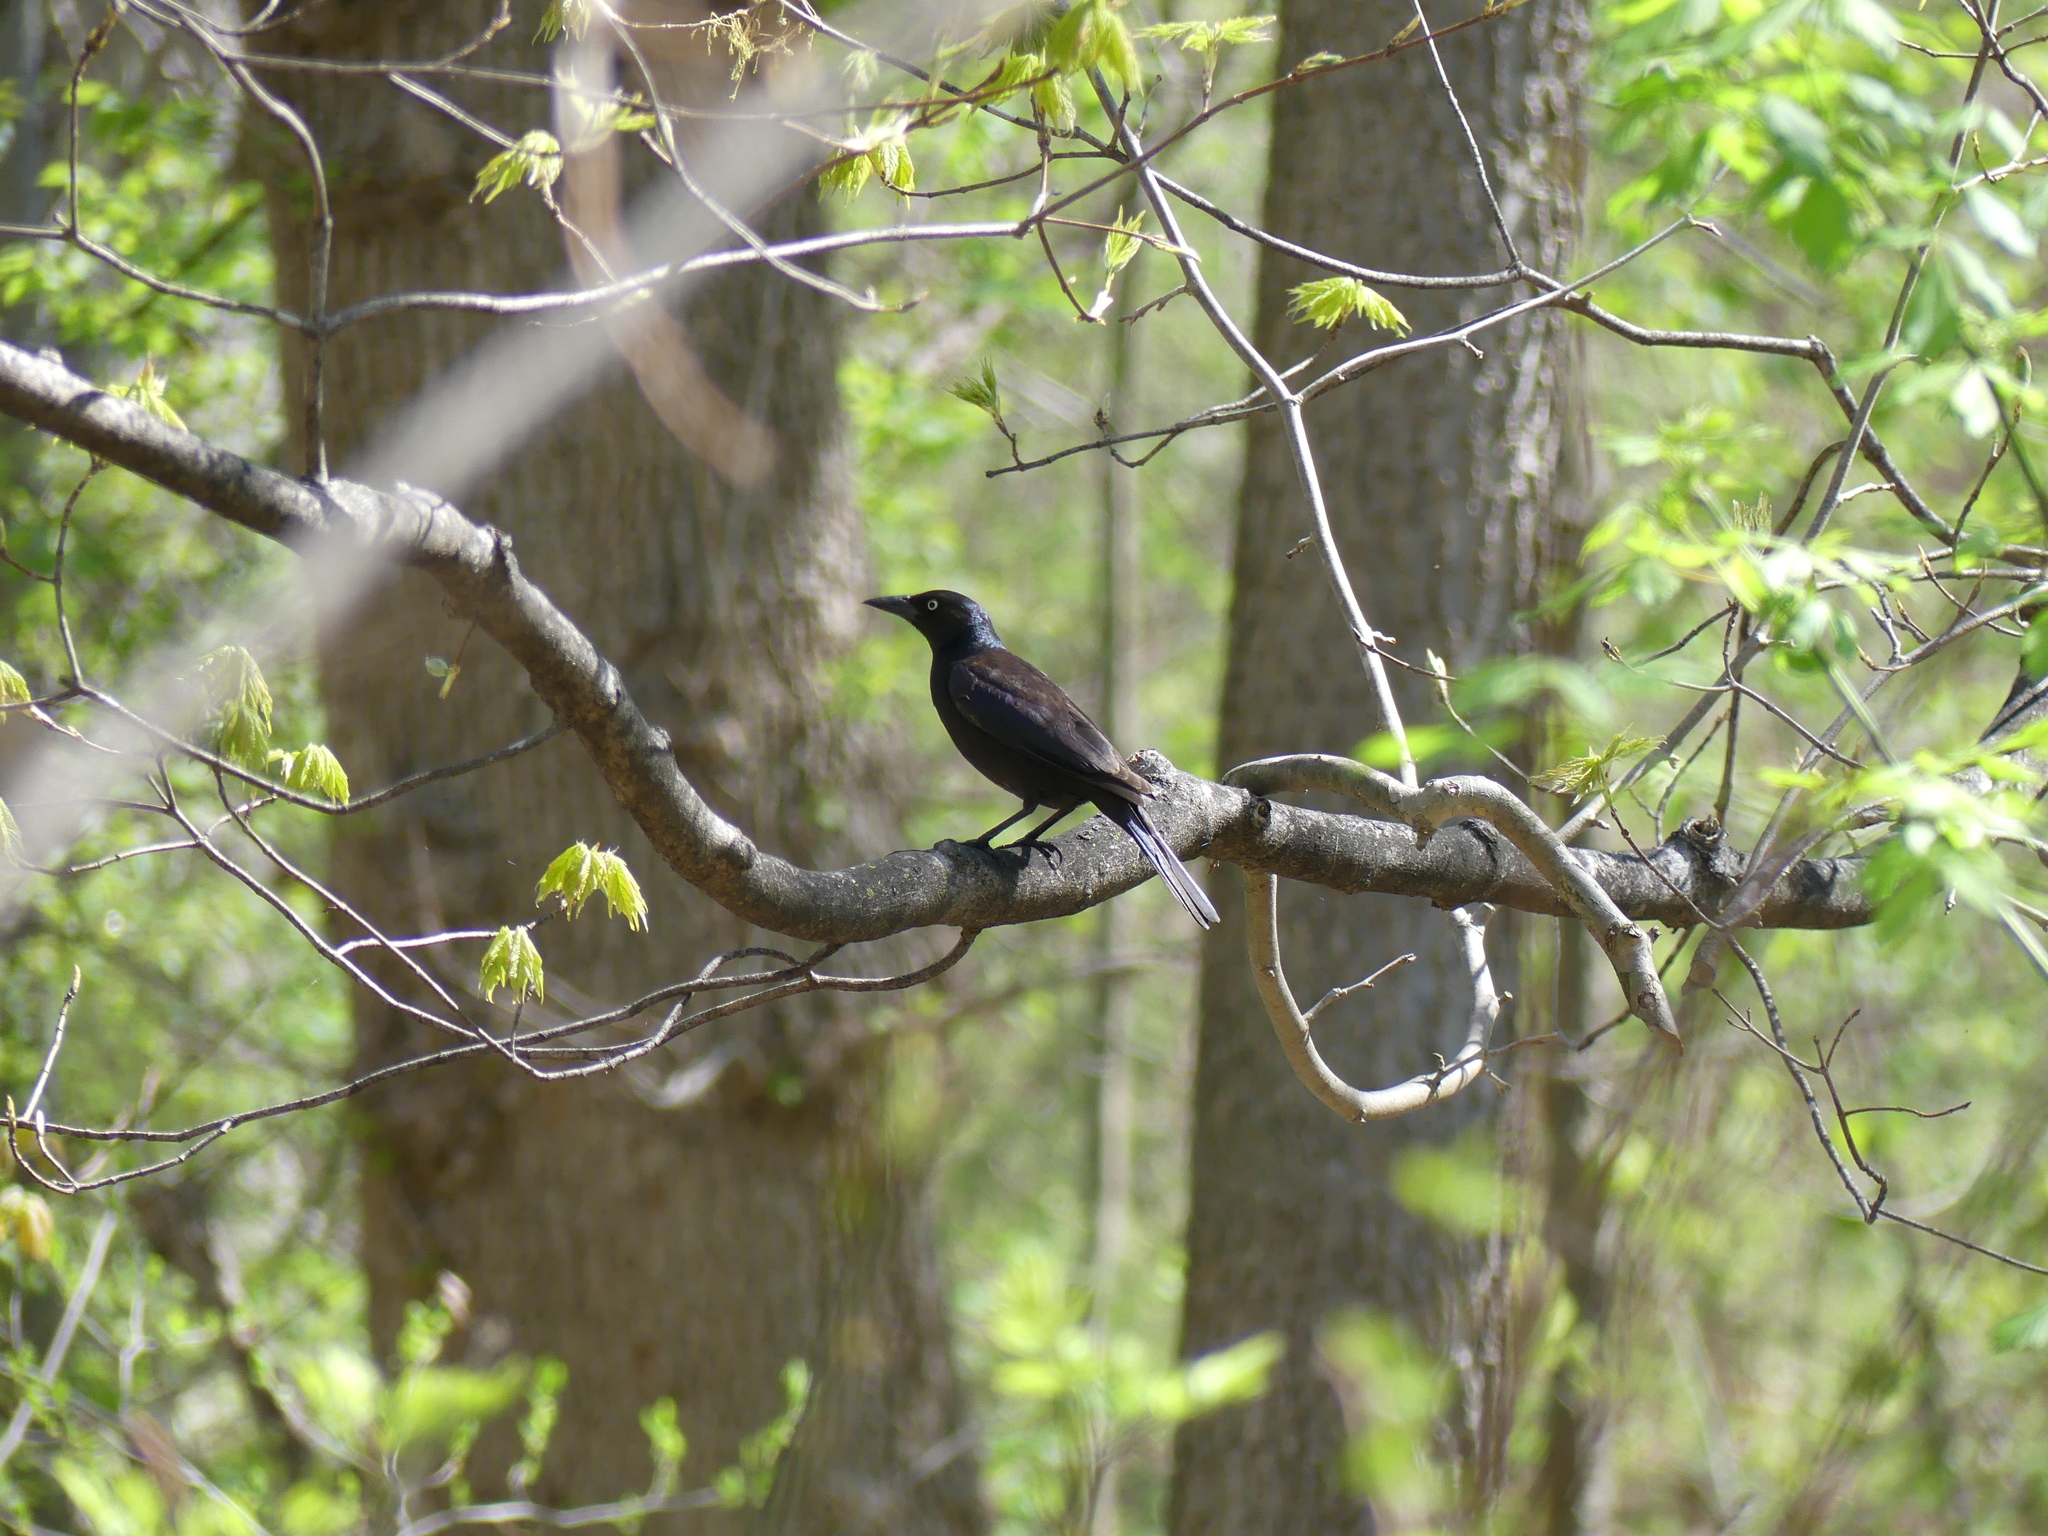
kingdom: Animalia
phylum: Chordata
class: Aves
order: Passeriformes
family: Icteridae
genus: Quiscalus
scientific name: Quiscalus quiscula
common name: Common grackle
